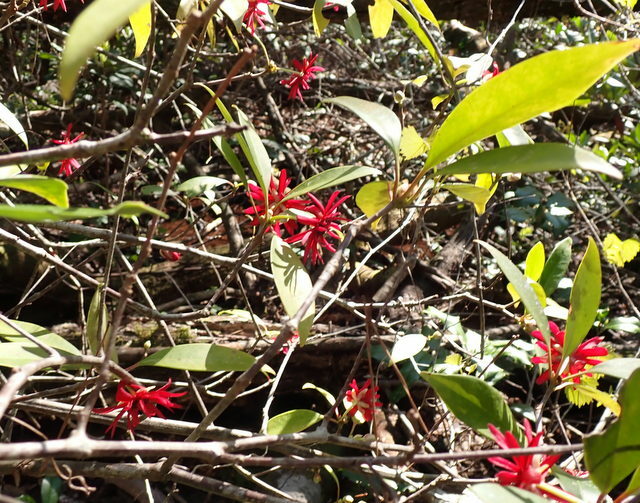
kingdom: Plantae
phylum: Tracheophyta
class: Magnoliopsida
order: Austrobaileyales
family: Schisandraceae
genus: Illicium
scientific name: Illicium floridanum
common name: Florida anisetree
